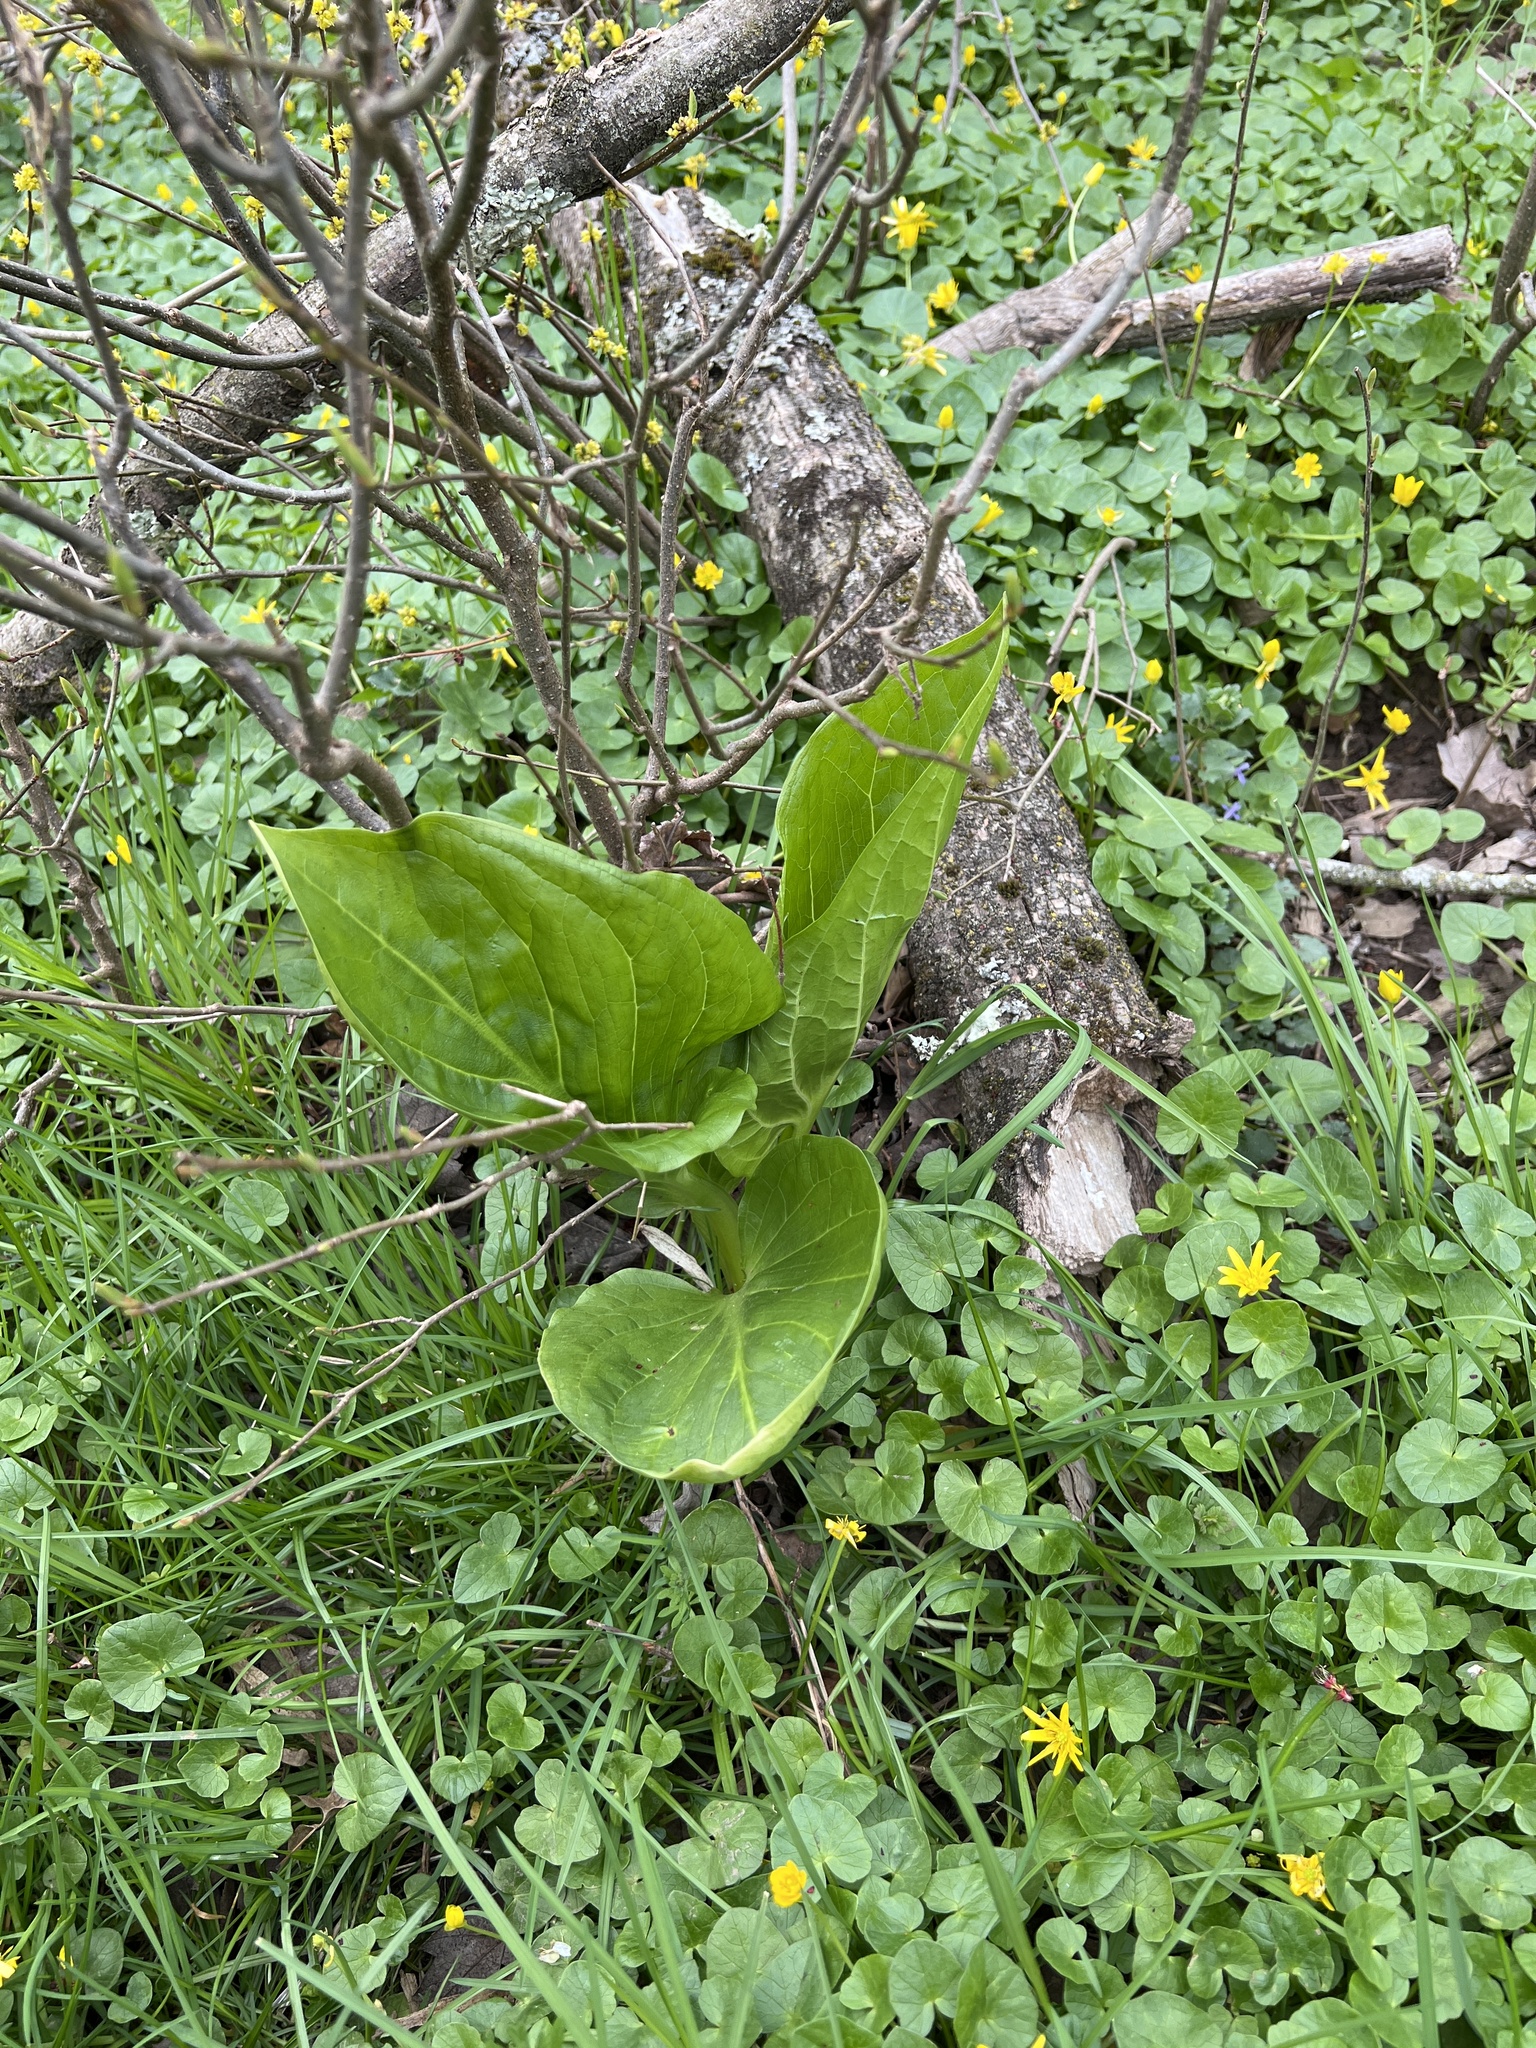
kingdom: Plantae
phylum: Tracheophyta
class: Liliopsida
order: Alismatales
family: Araceae
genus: Symplocarpus
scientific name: Symplocarpus foetidus
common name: Eastern skunk cabbage
